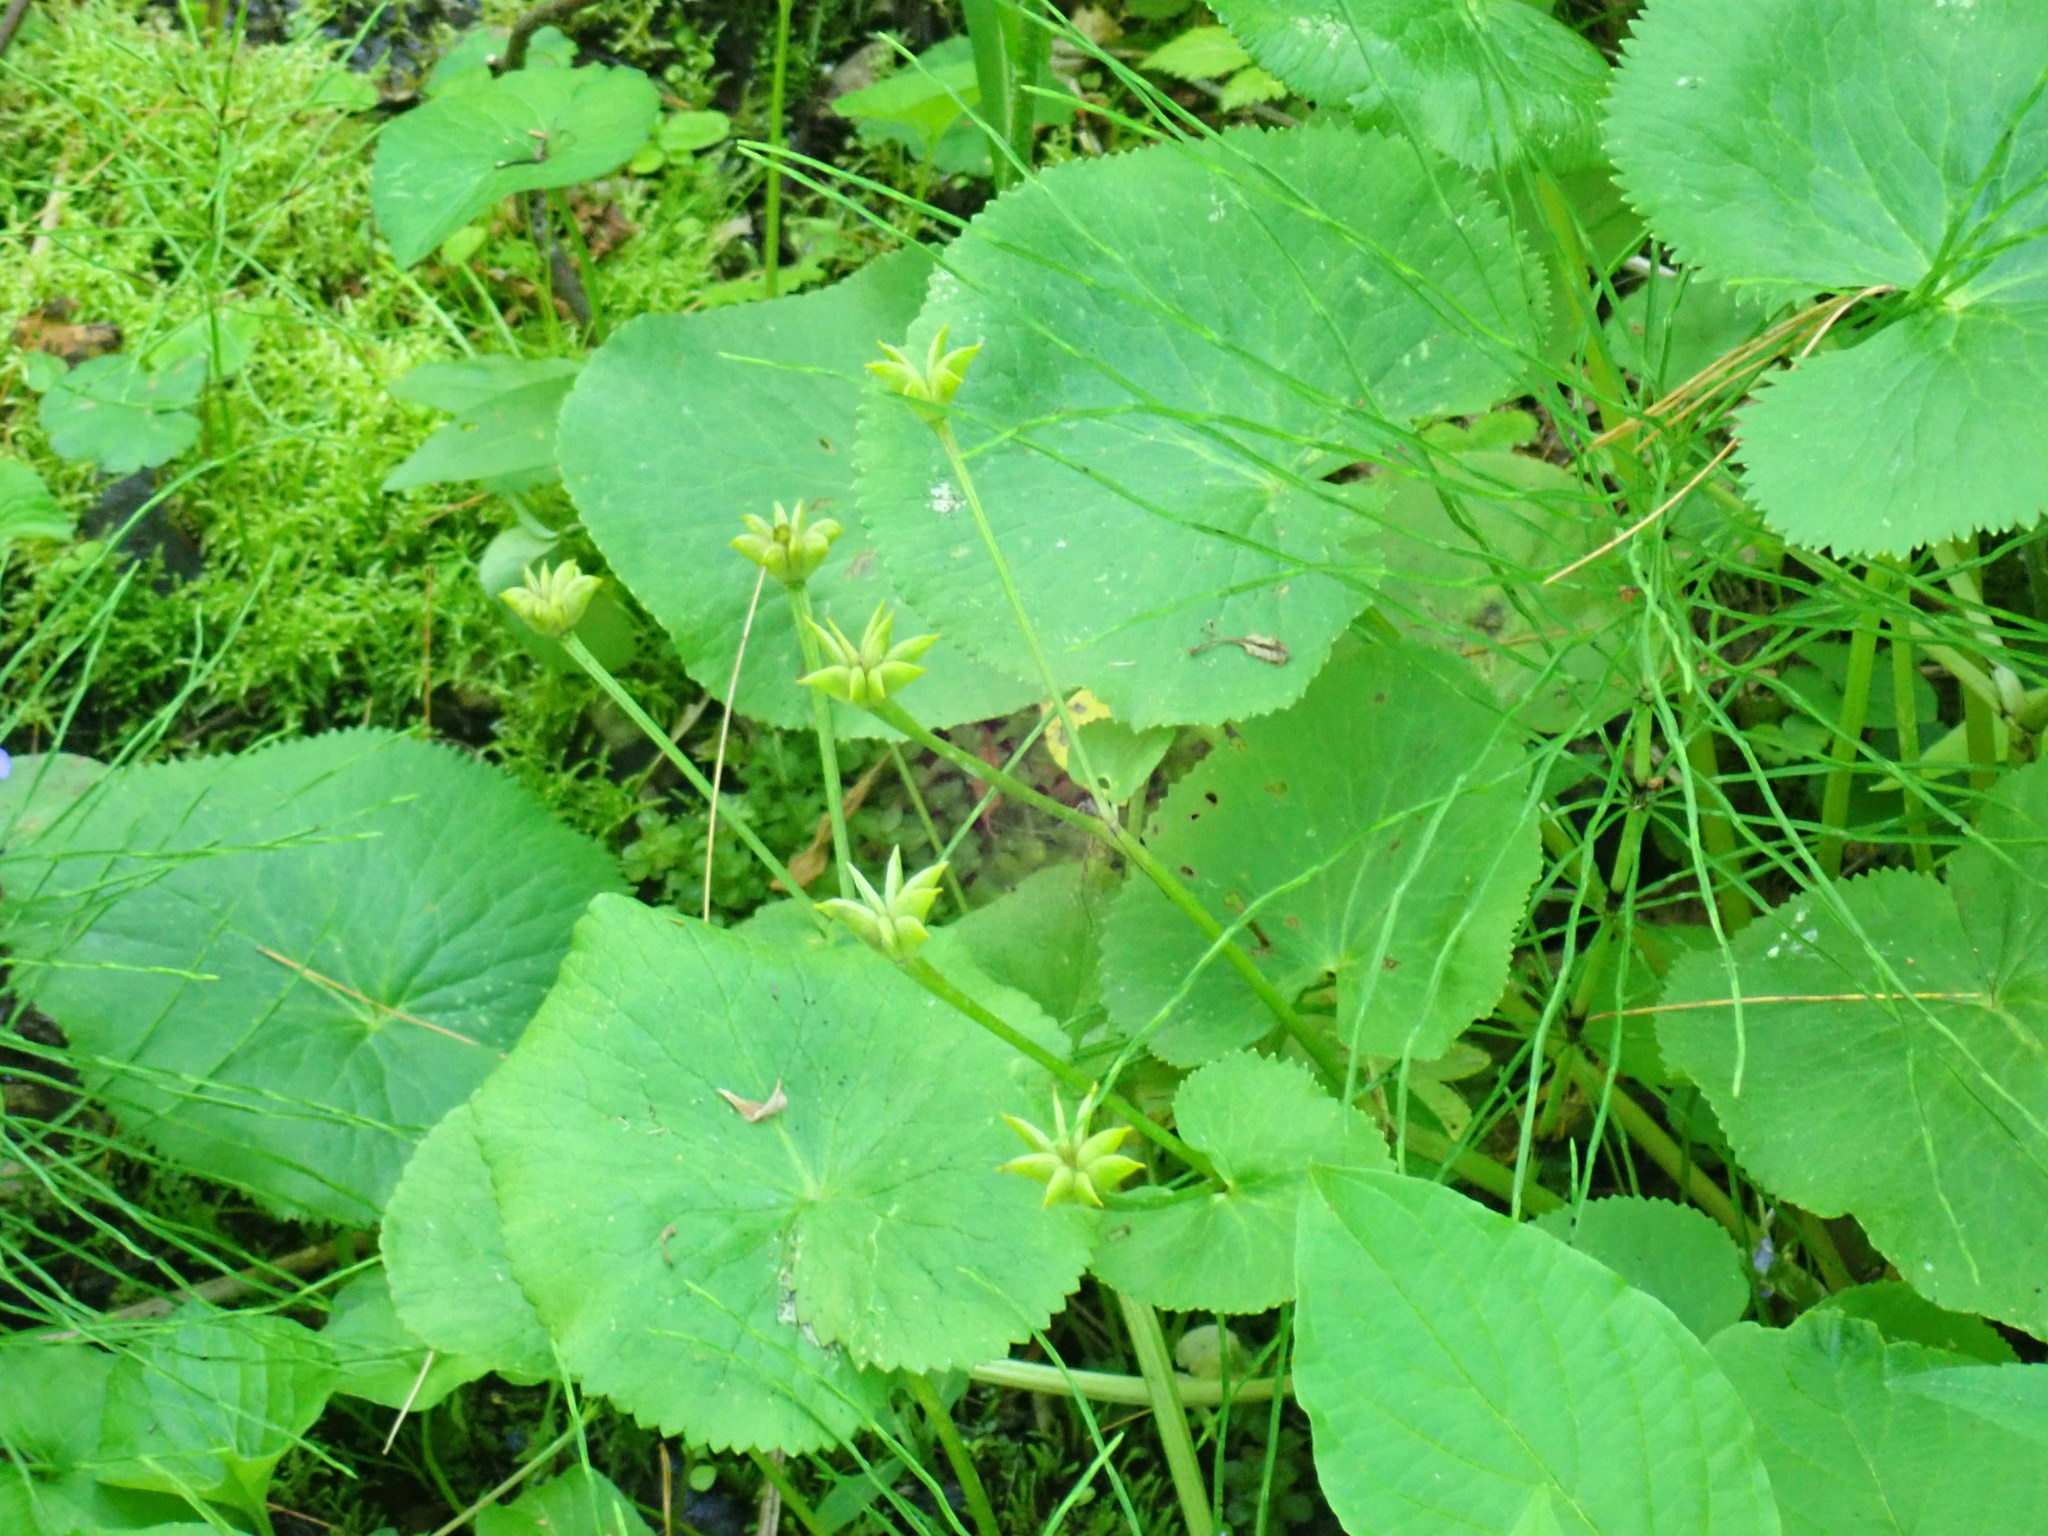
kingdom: Plantae
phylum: Tracheophyta
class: Magnoliopsida
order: Ranunculales
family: Ranunculaceae
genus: Caltha
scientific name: Caltha palustris
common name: Marsh marigold
